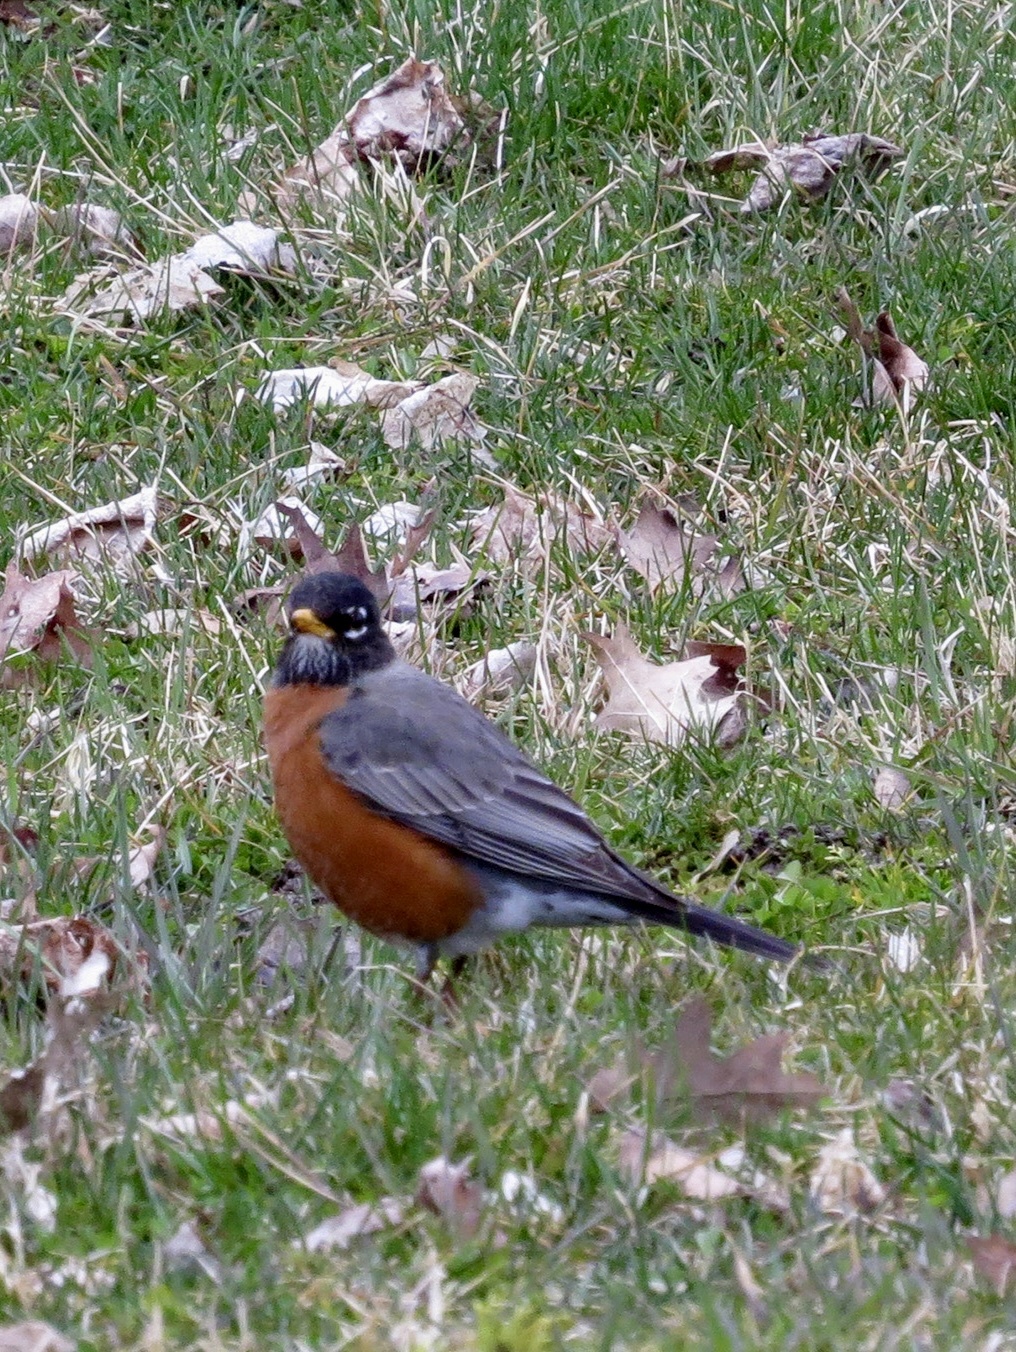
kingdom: Animalia
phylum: Chordata
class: Aves
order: Passeriformes
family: Turdidae
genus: Turdus
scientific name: Turdus migratorius
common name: American robin
